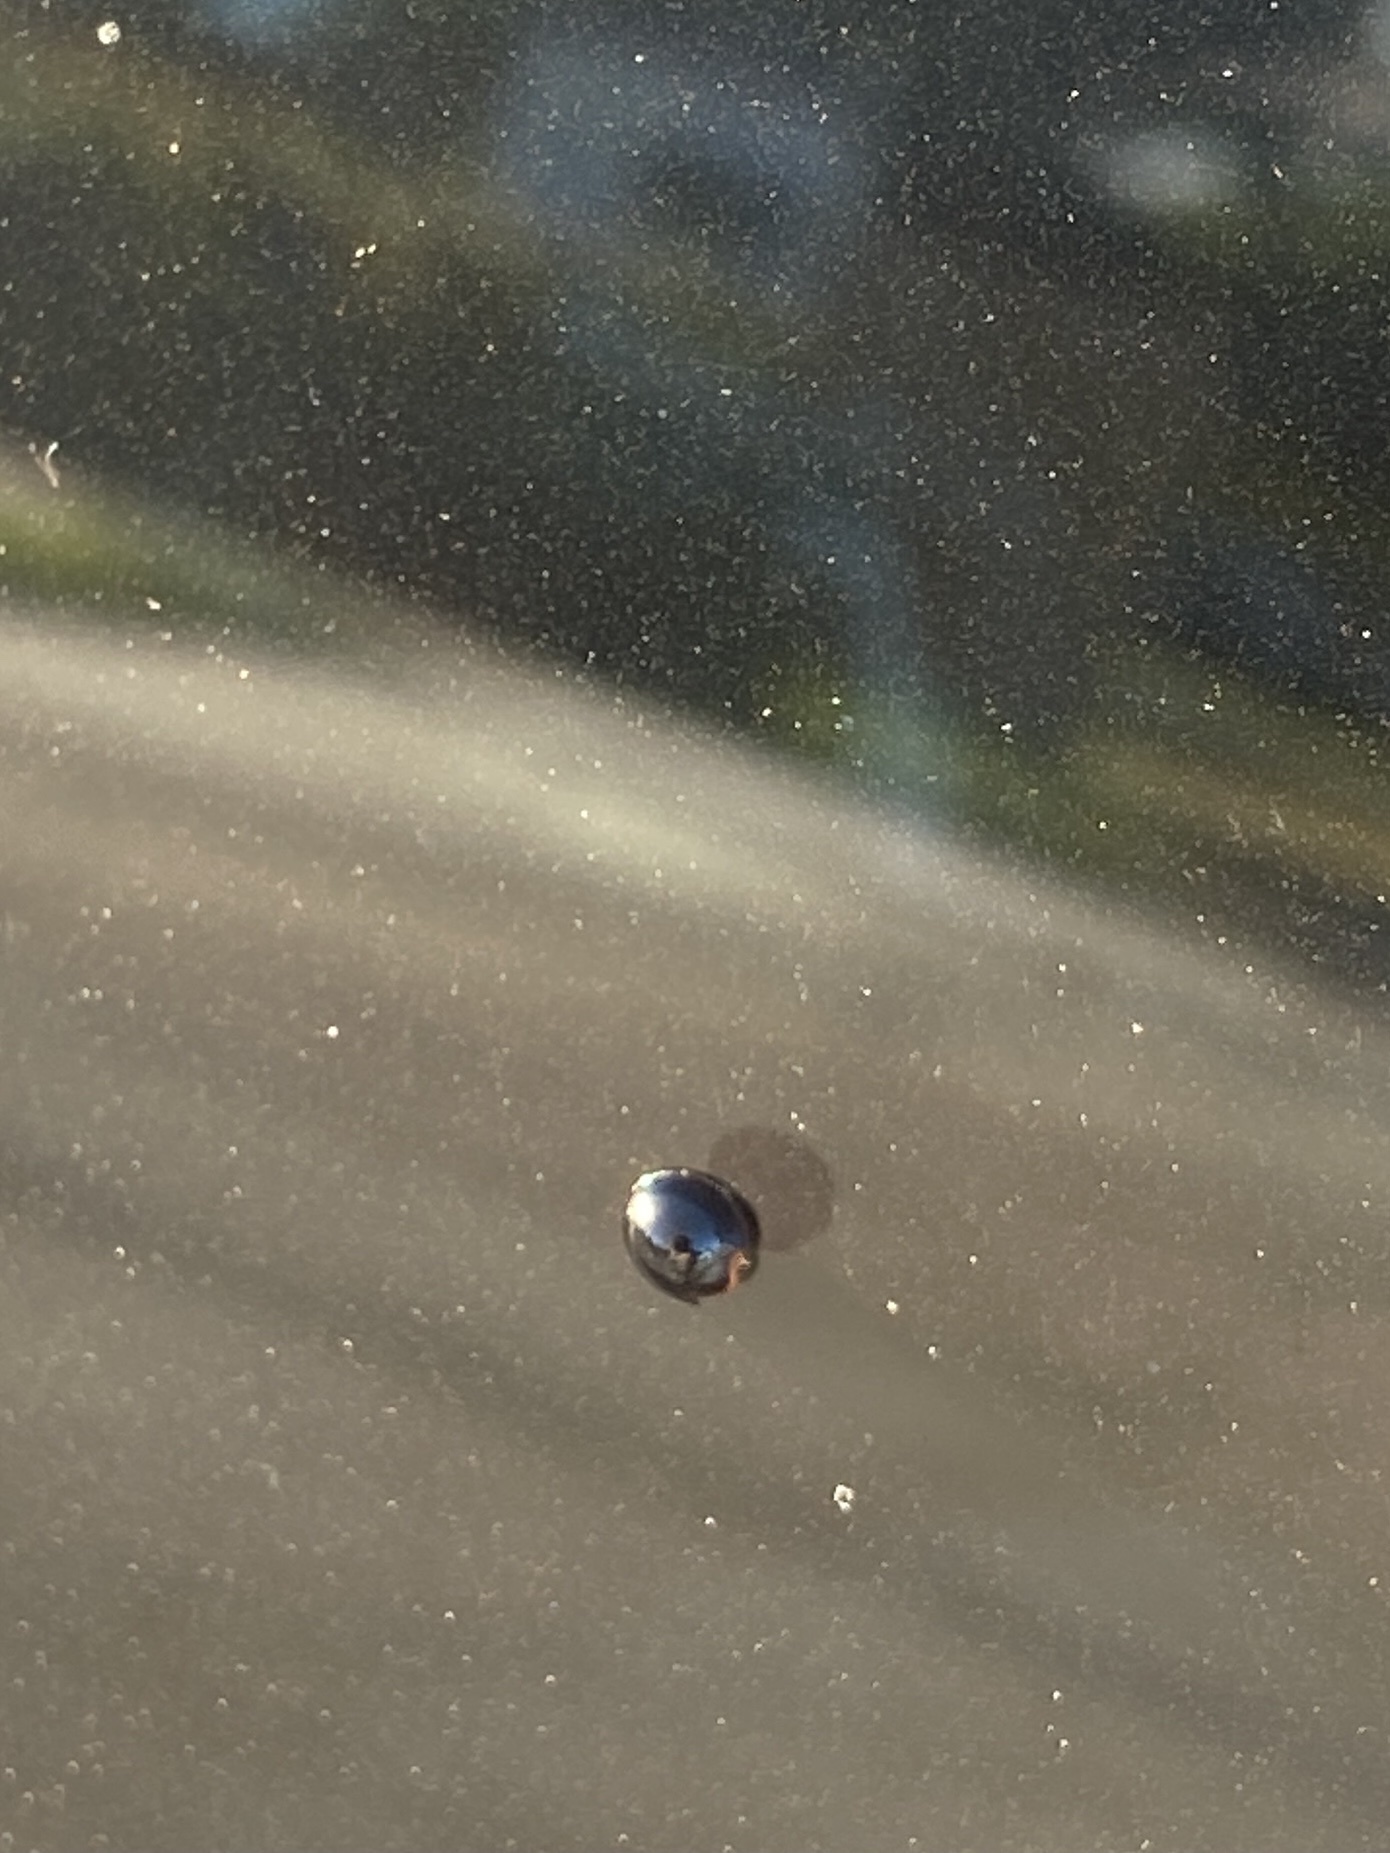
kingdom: Animalia
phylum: Arthropoda
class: Insecta
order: Coleoptera
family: Coccinellidae
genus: Chilocorus
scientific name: Chilocorus nigritus
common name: Ladybird beetle
